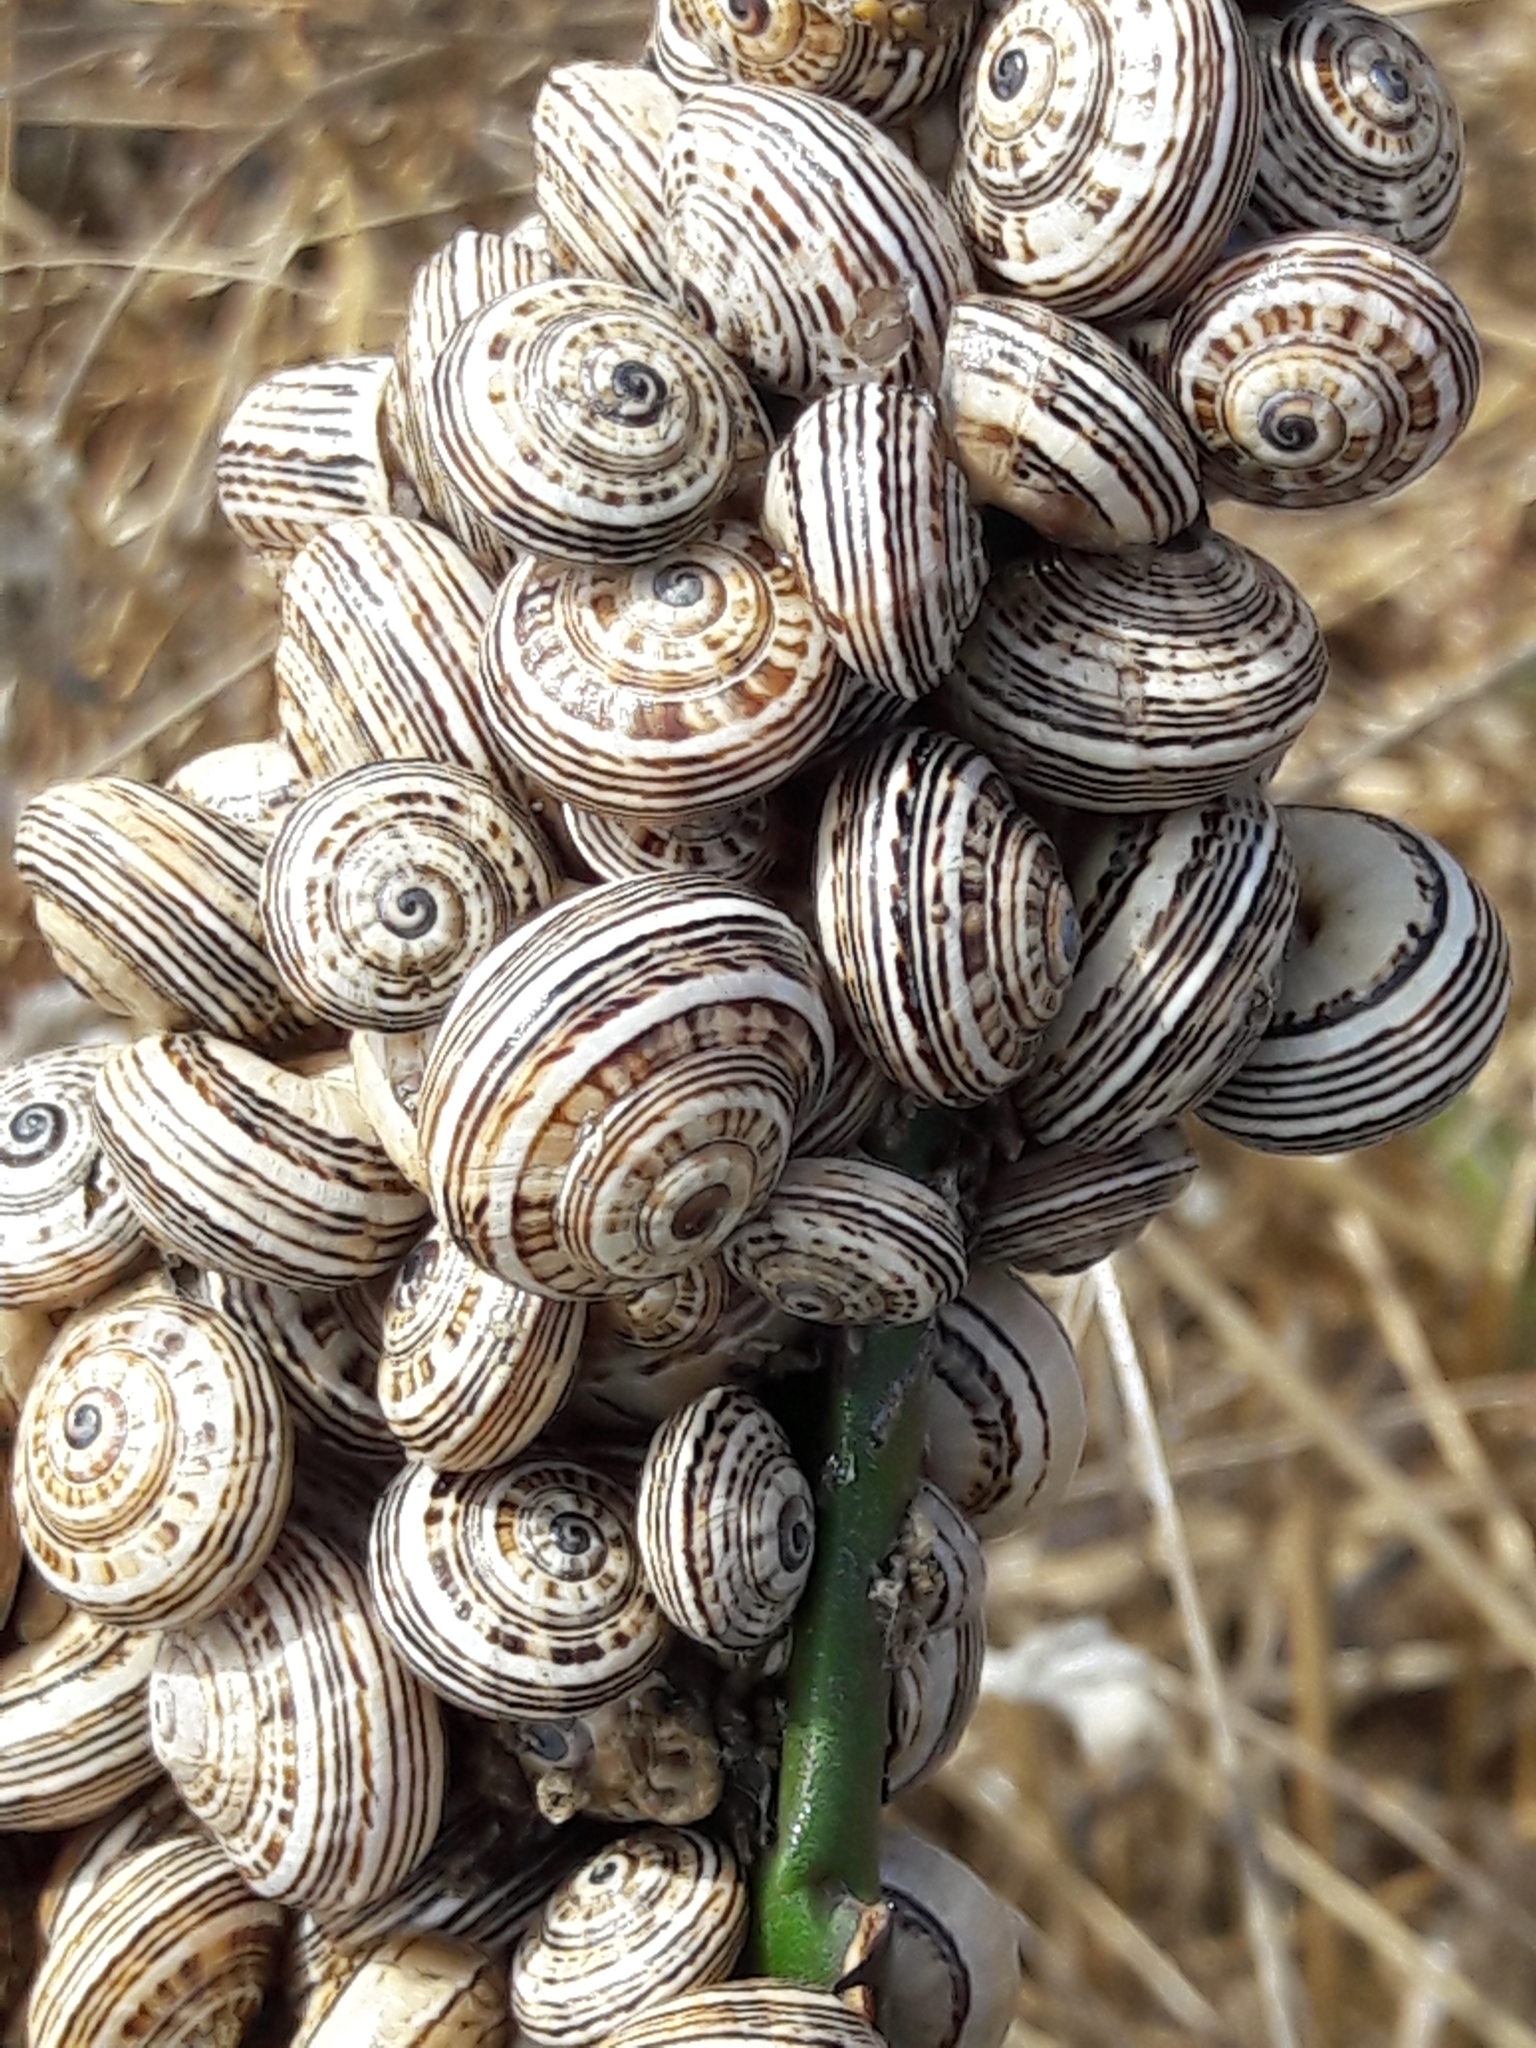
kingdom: Animalia
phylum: Mollusca
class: Gastropoda
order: Stylommatophora
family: Helicidae
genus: Theba
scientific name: Theba pisana
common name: White snail
